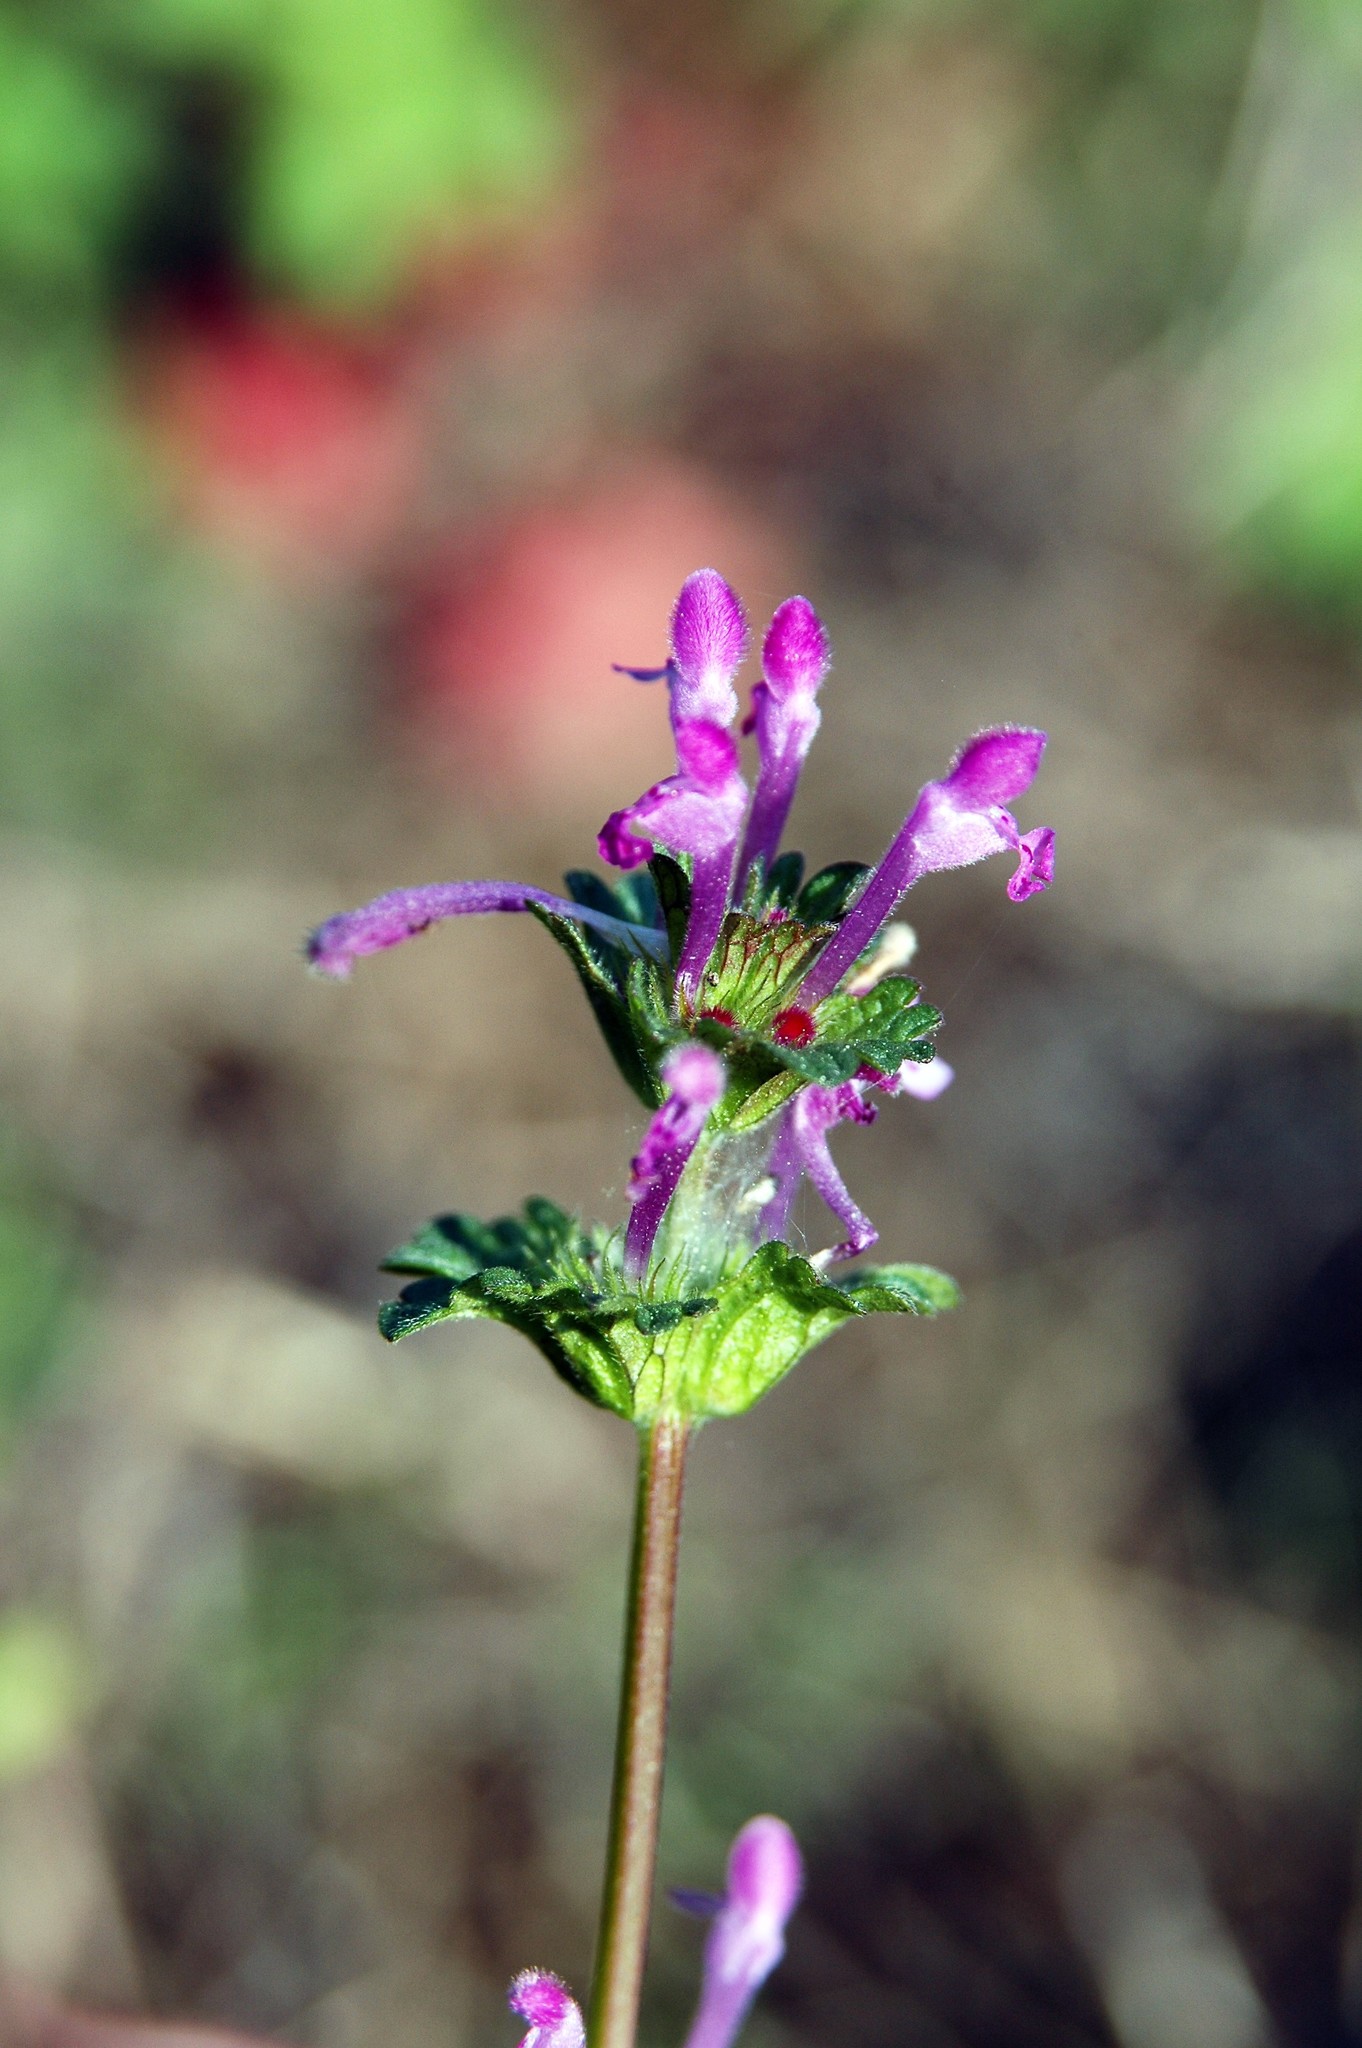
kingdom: Plantae
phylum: Tracheophyta
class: Magnoliopsida
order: Lamiales
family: Lamiaceae
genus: Lamium
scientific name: Lamium amplexicaule
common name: Henbit dead-nettle
